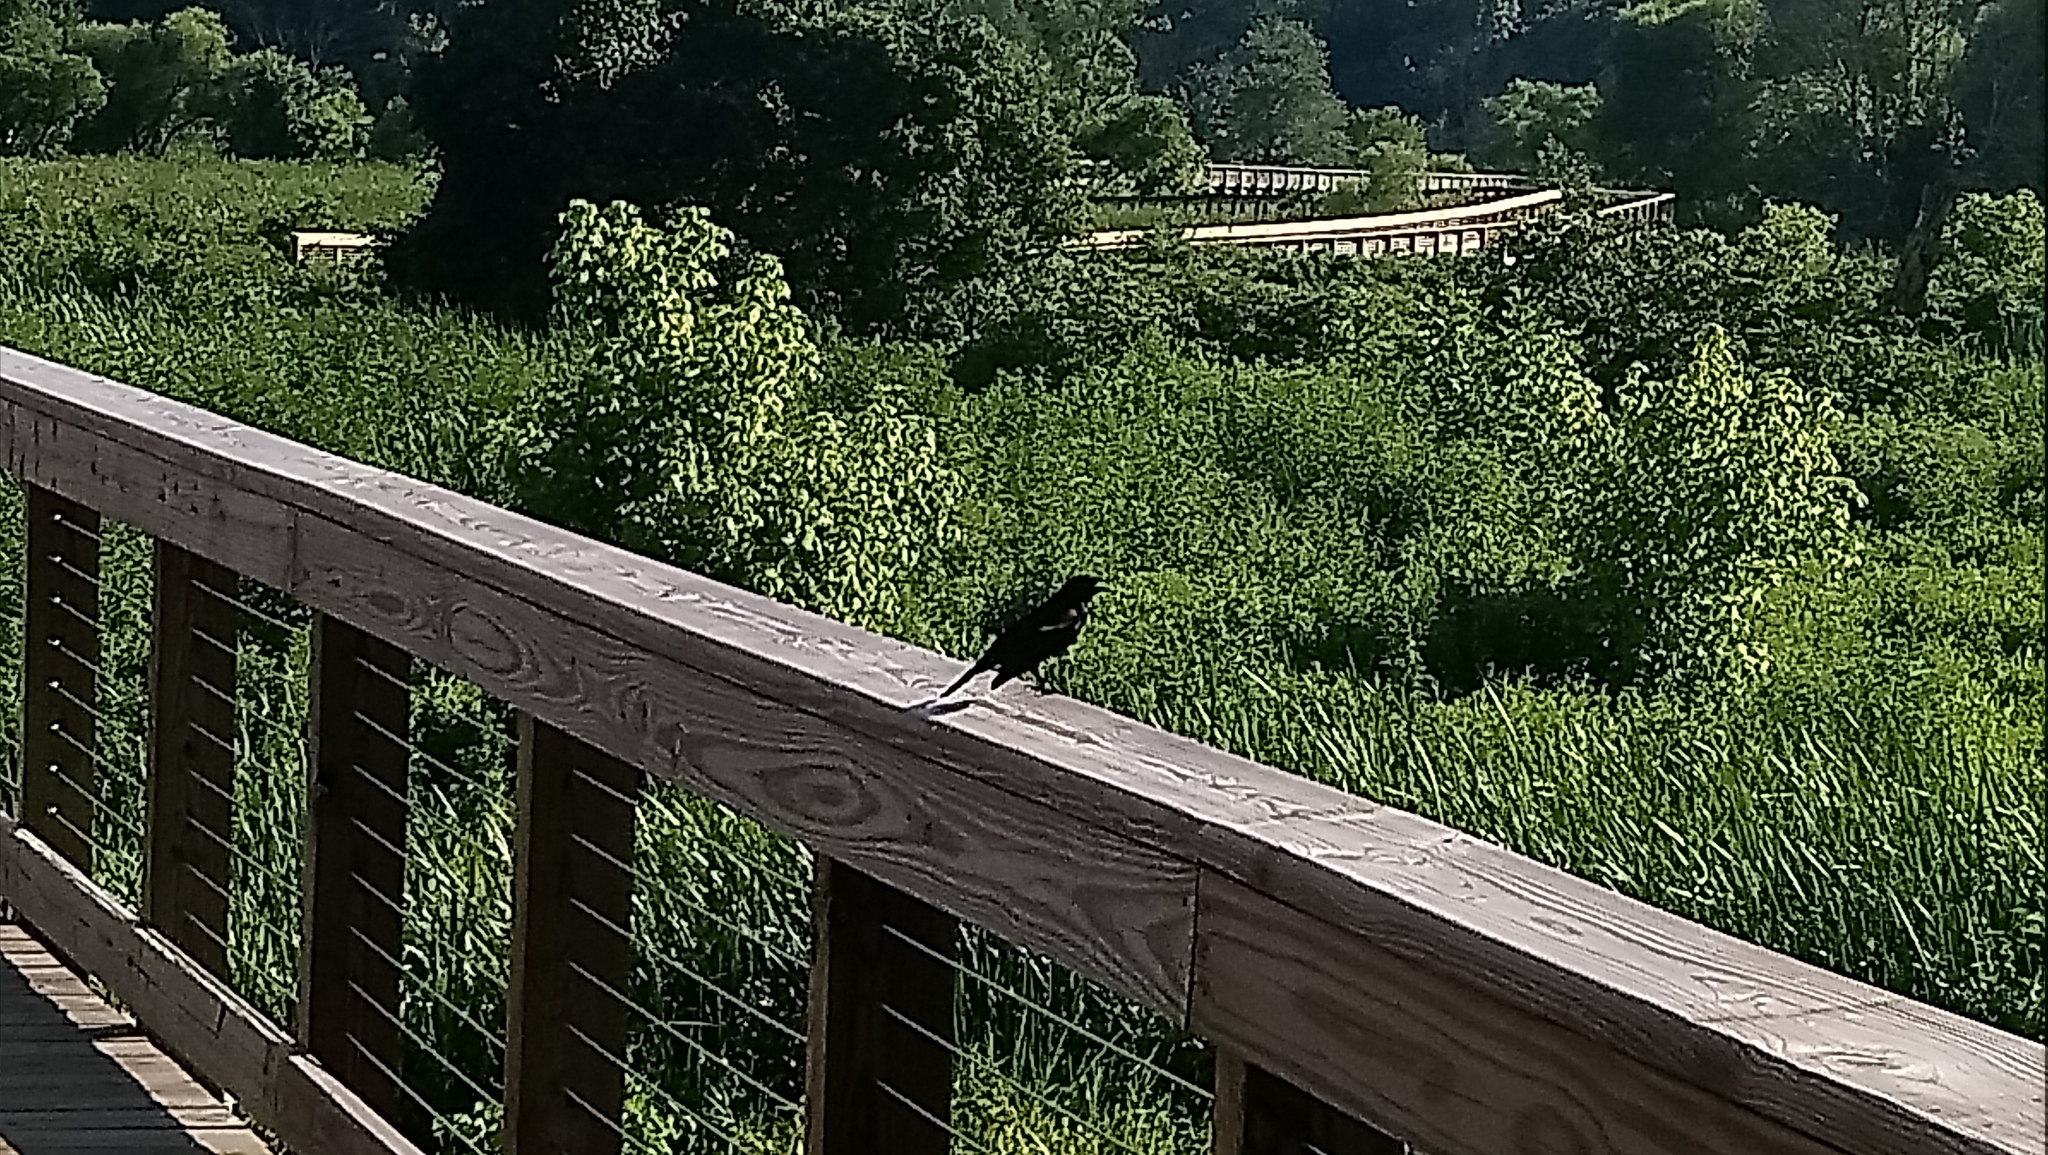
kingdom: Animalia
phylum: Chordata
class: Aves
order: Passeriformes
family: Icteridae
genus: Agelaius
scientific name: Agelaius phoeniceus
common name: Red-winged blackbird
